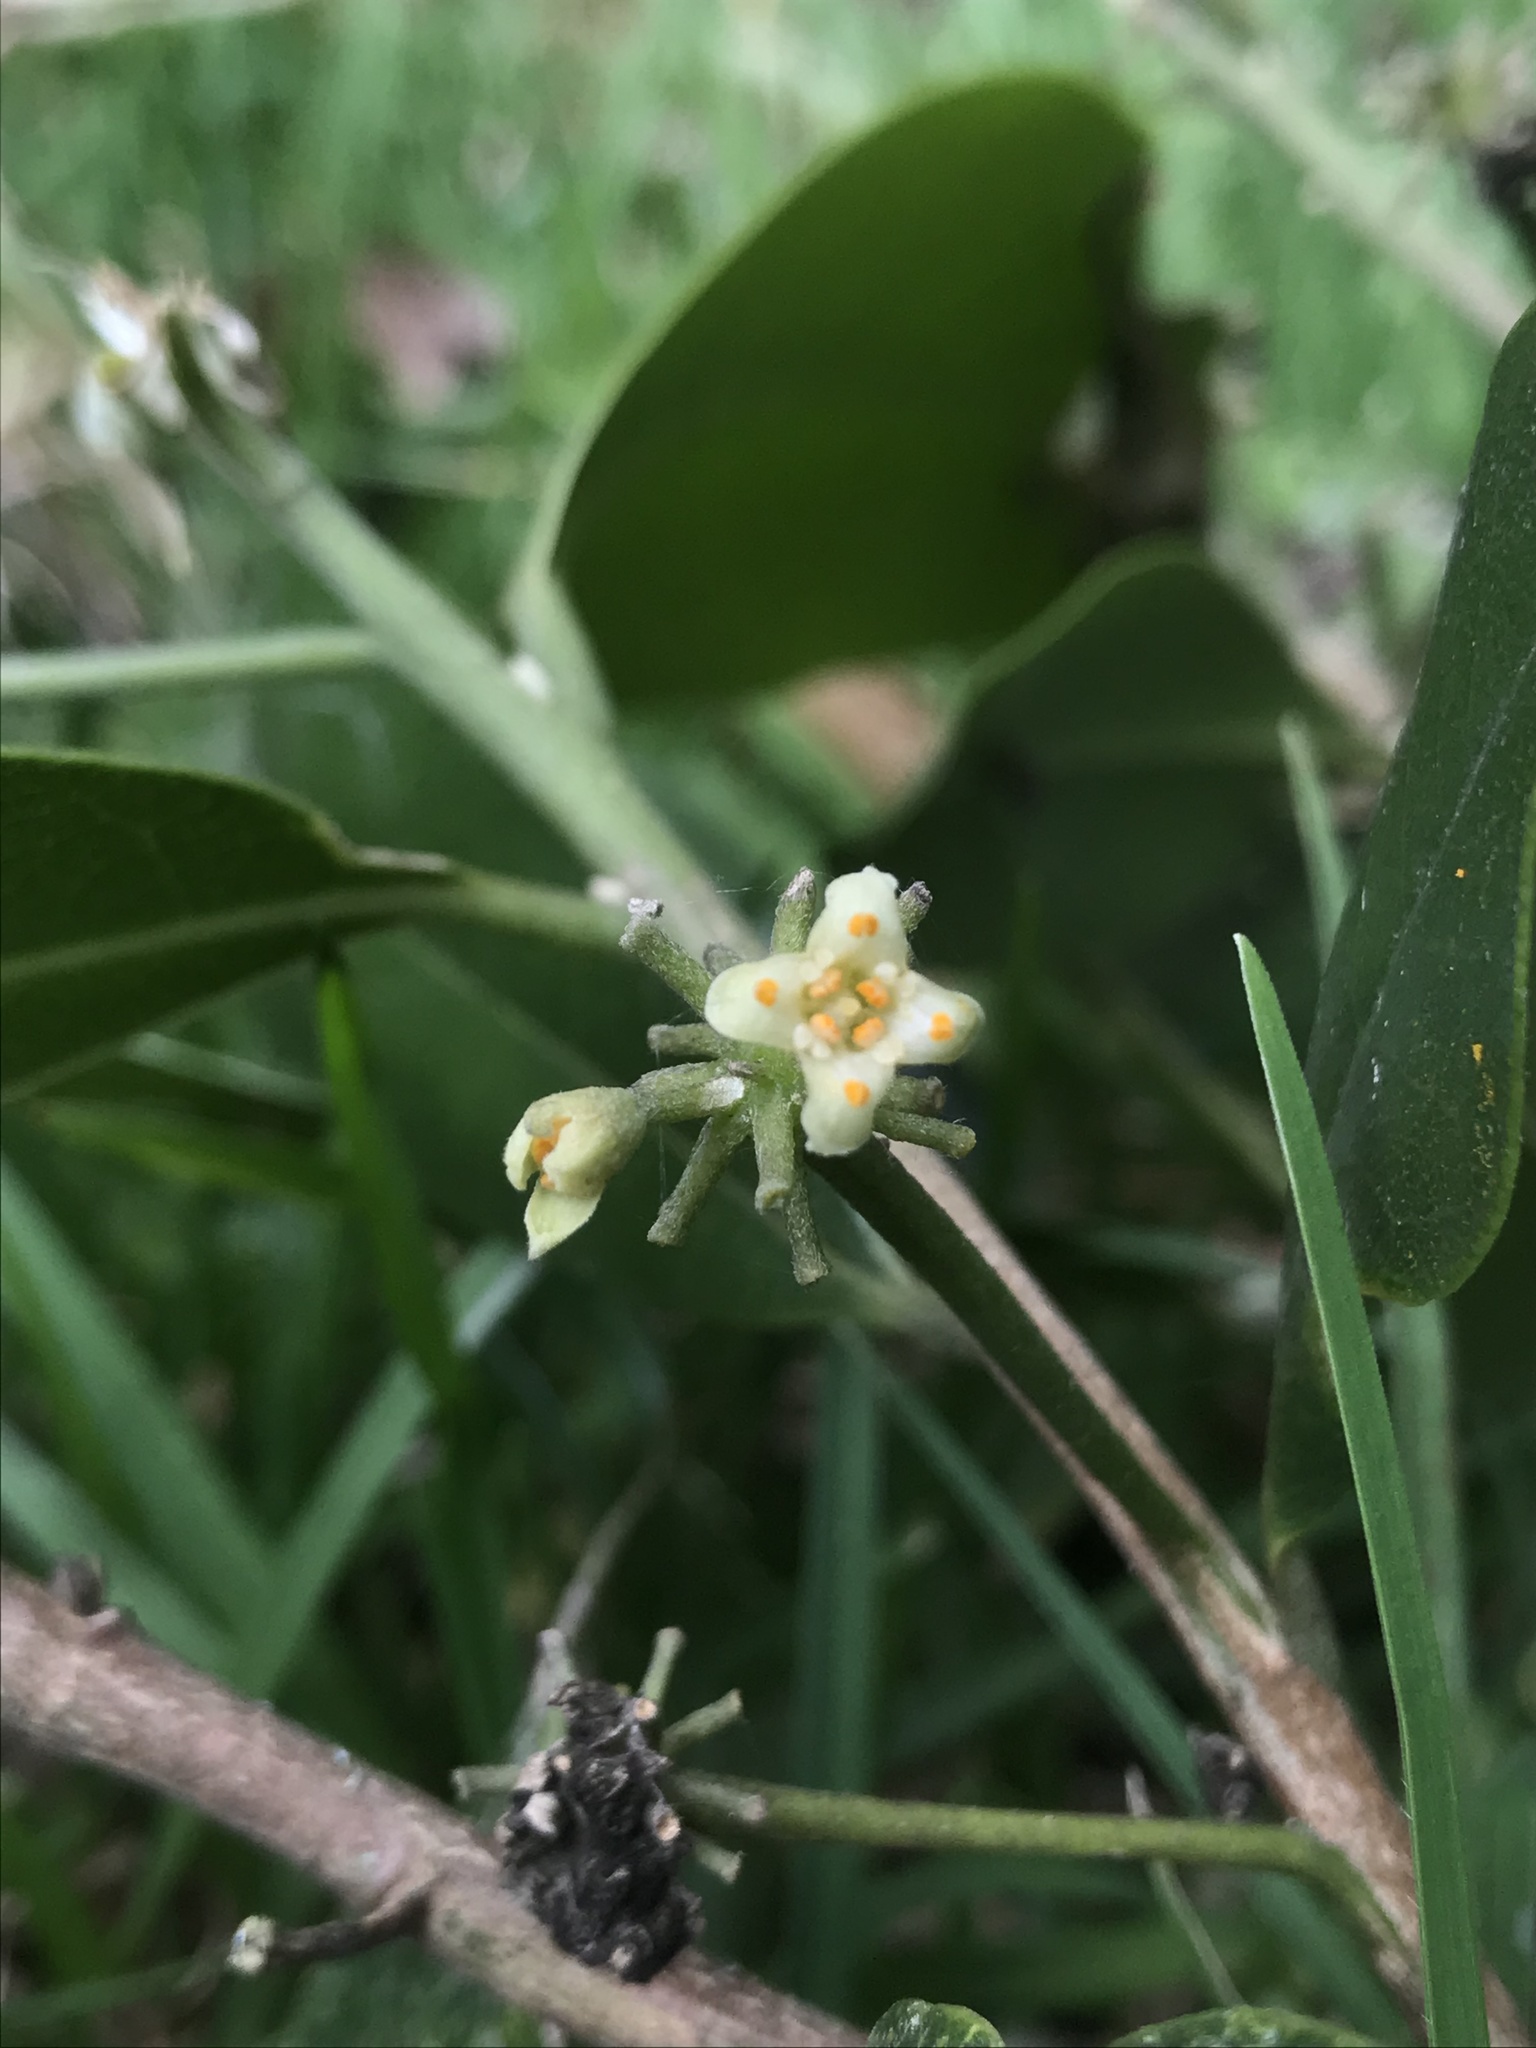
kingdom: Plantae
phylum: Tracheophyta
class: Magnoliopsida
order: Malvales
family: Thymelaeaceae
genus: Daphnopsis
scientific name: Daphnopsis caracasana
